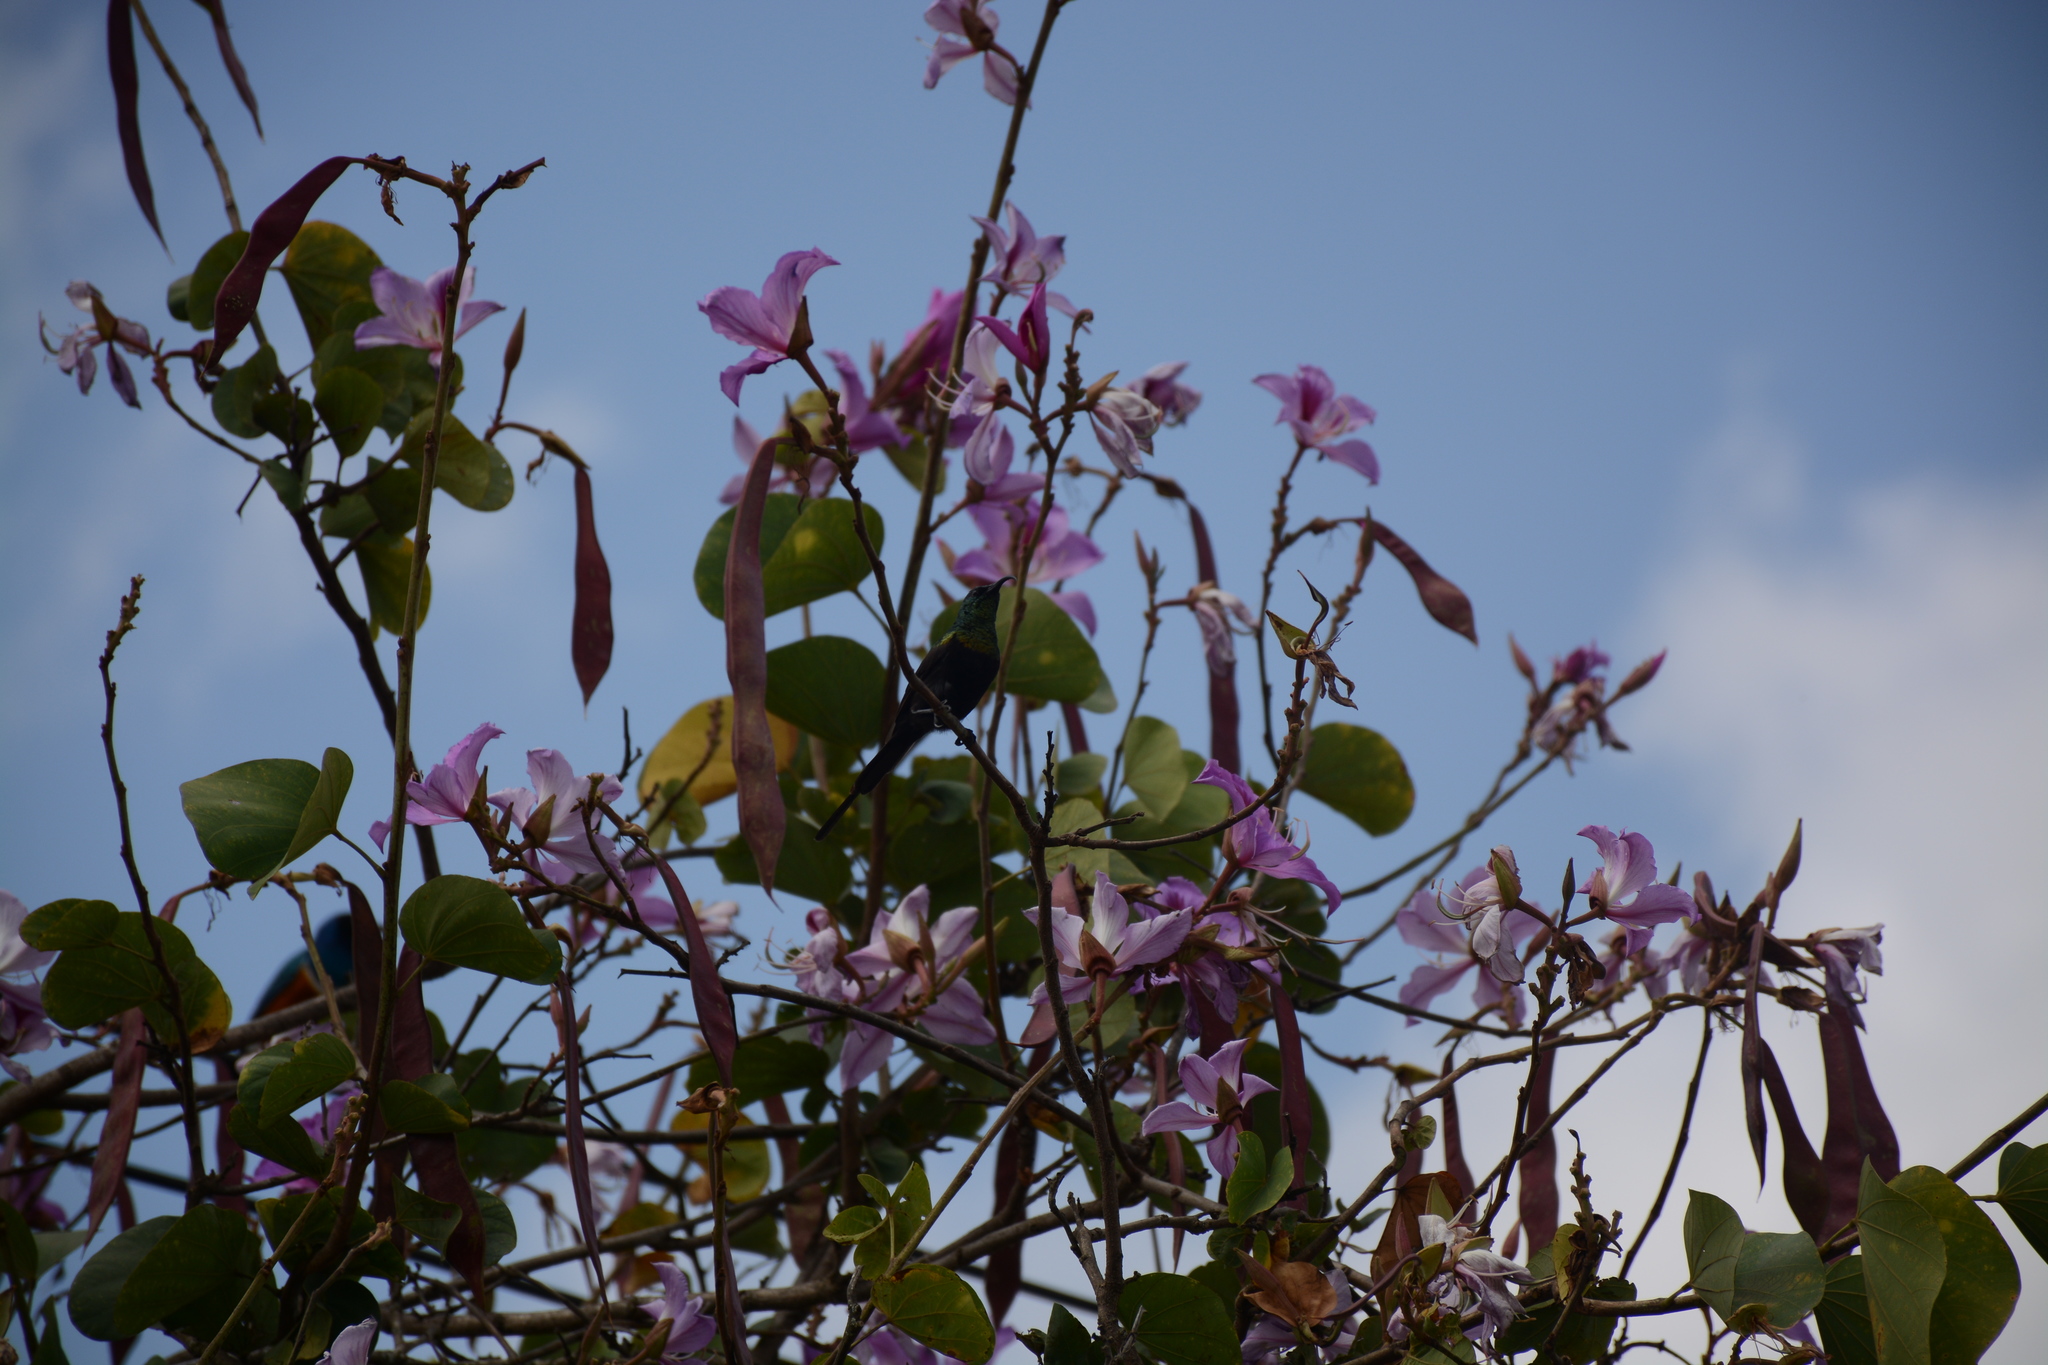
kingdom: Animalia
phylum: Chordata
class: Aves
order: Passeriformes
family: Nectariniidae
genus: Nectarinia
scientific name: Nectarinia kilimensis
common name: Bronzy sunbird
